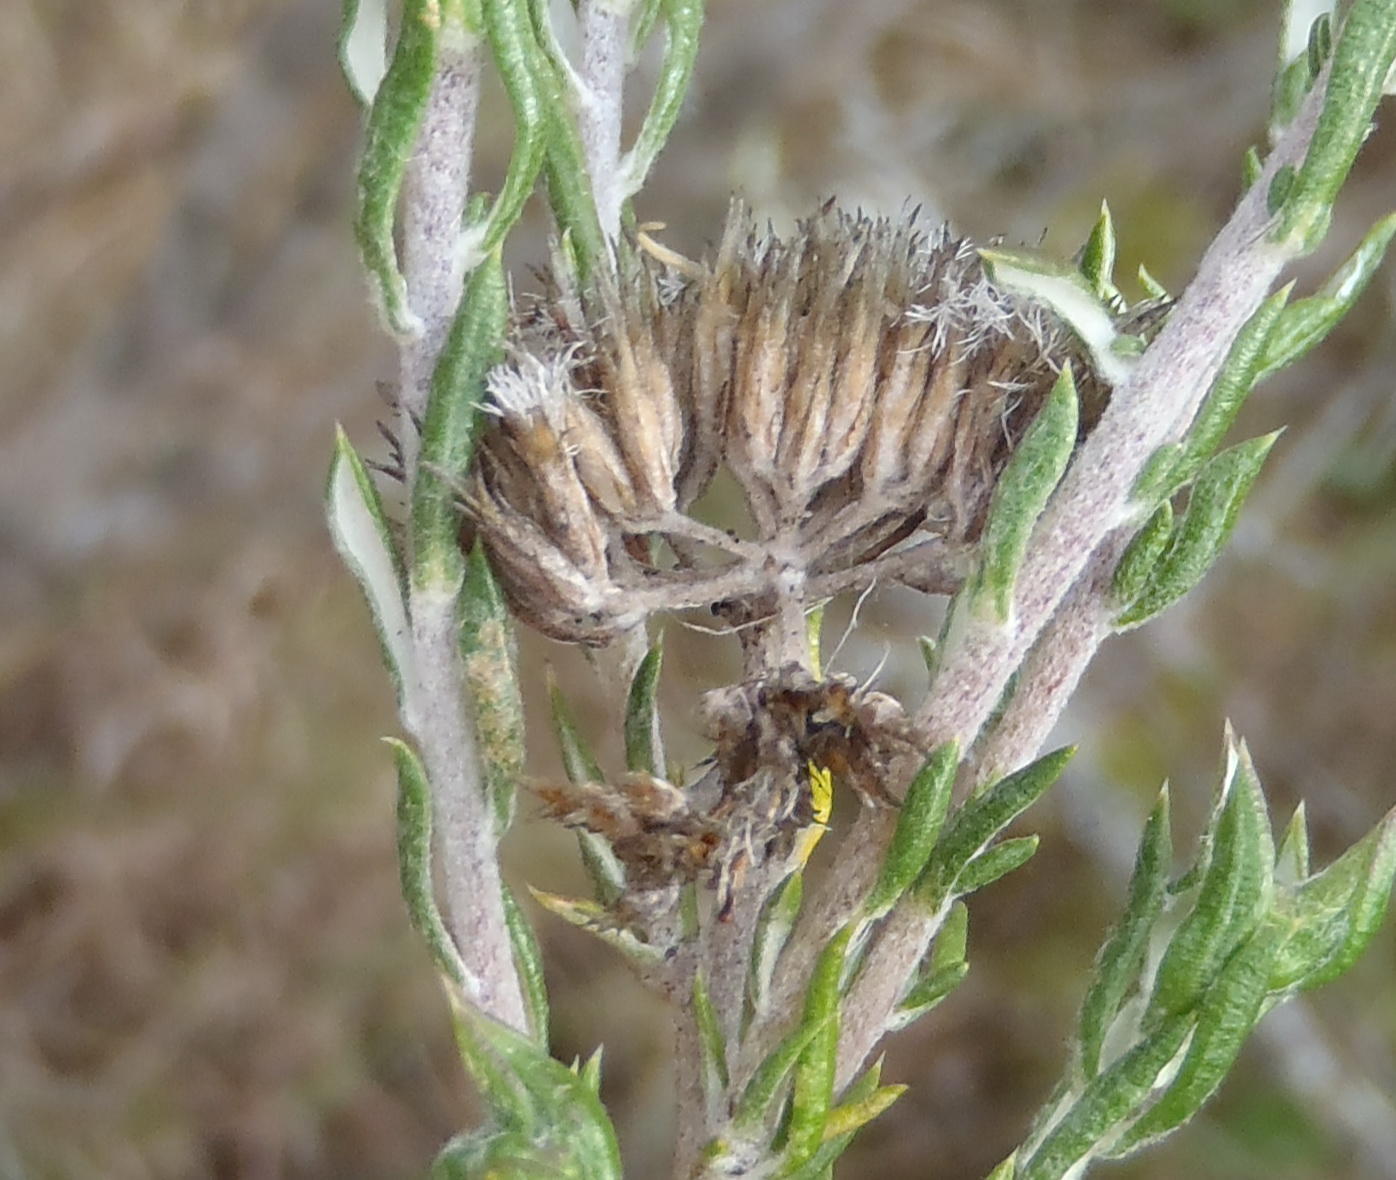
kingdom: Plantae
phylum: Tracheophyta
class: Magnoliopsida
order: Asterales
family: Asteraceae
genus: Metalasia
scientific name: Metalasia pungens
